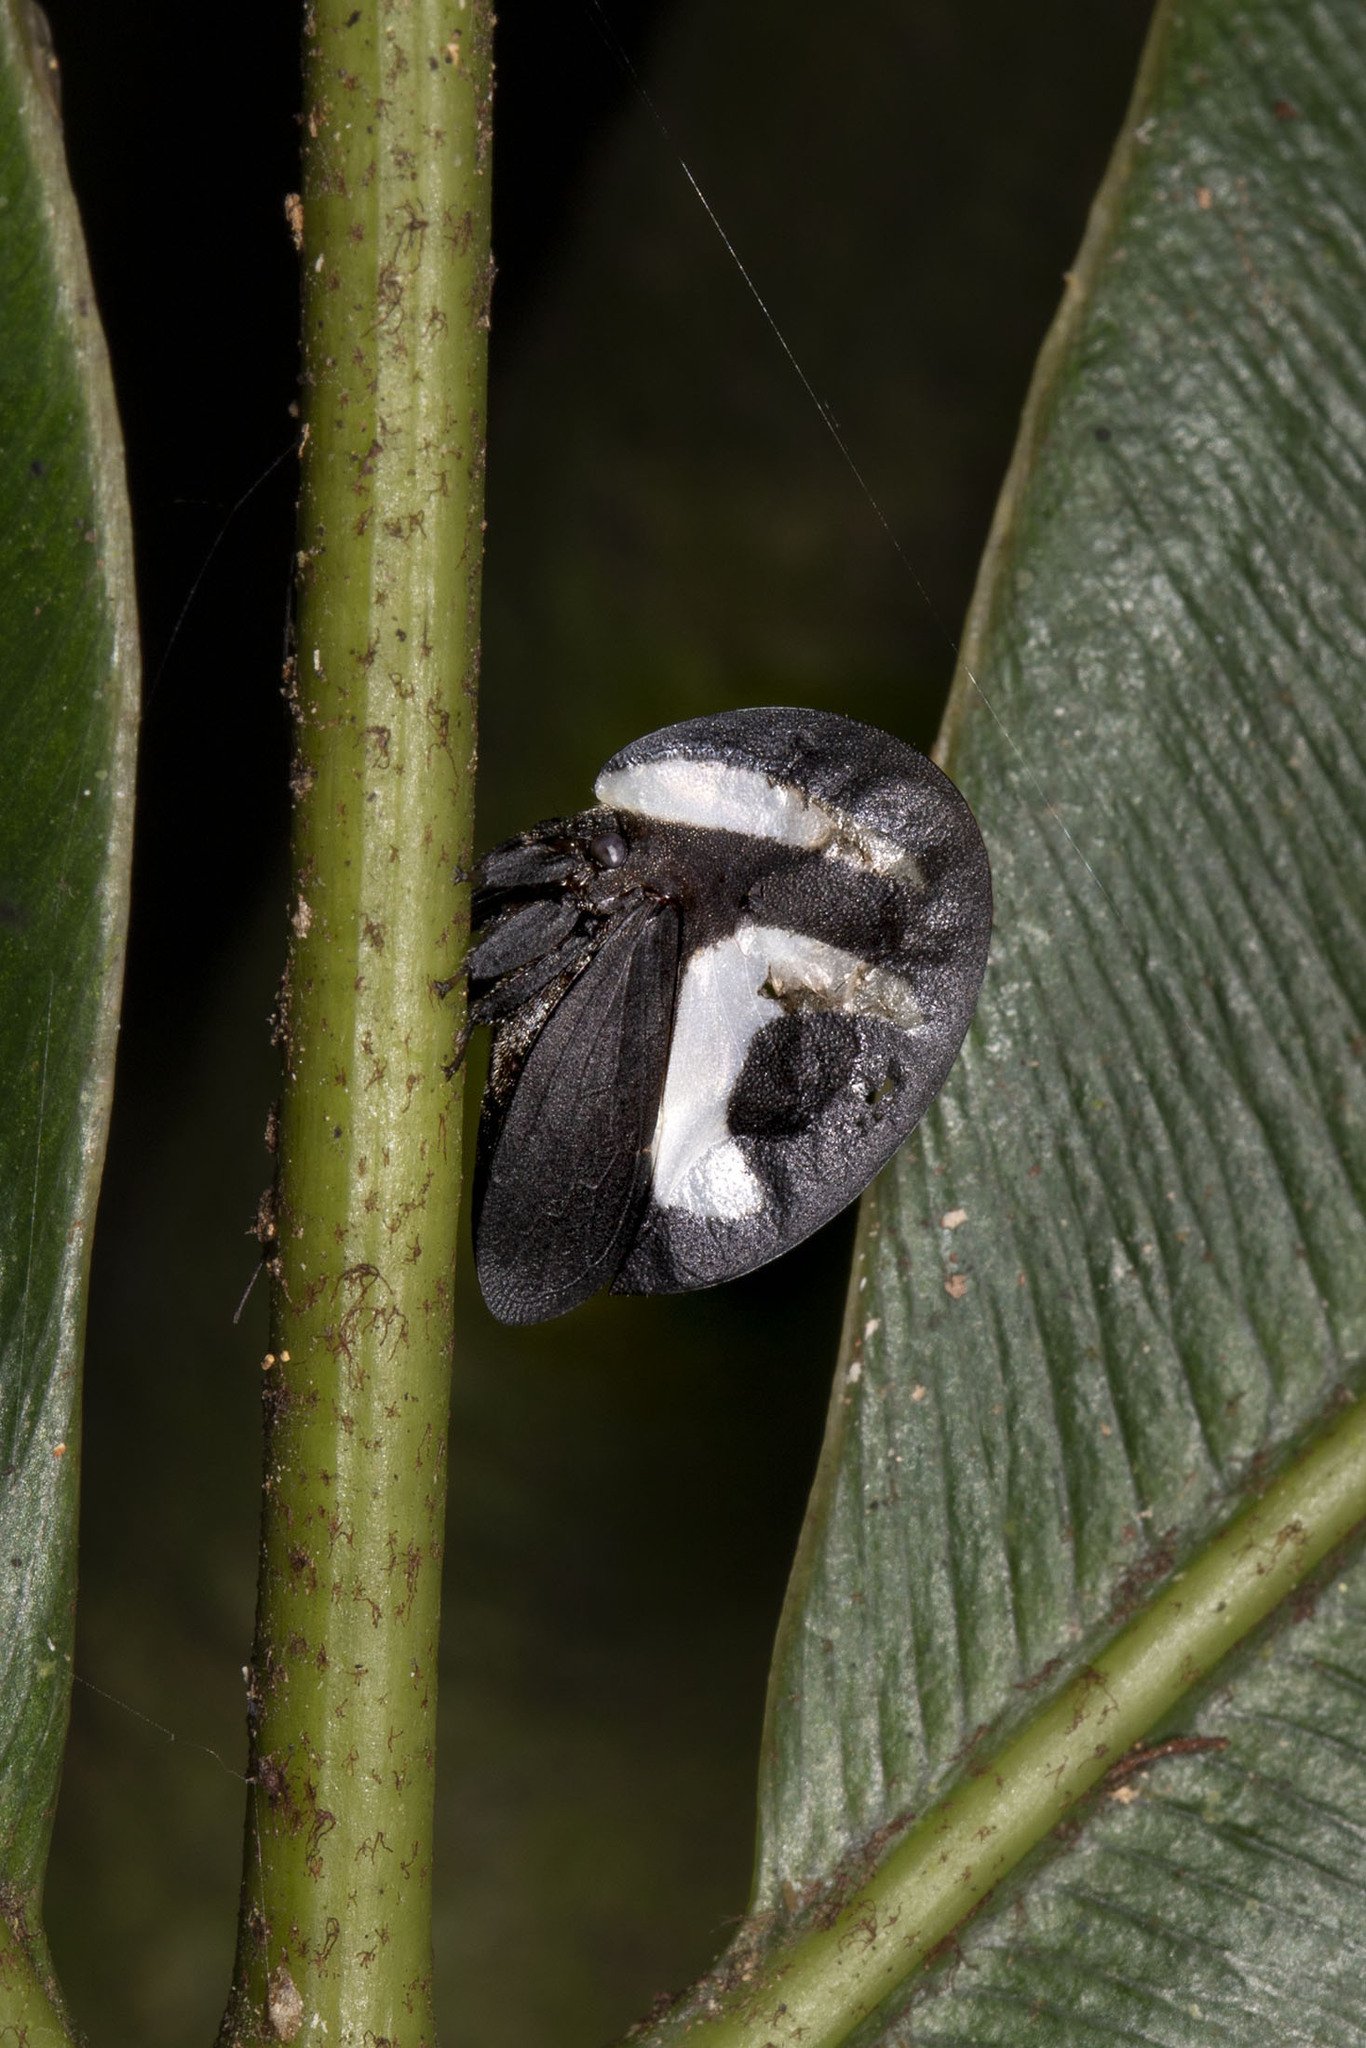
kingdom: Animalia
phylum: Arthropoda
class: Insecta
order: Hemiptera
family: Membracidae
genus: Membracis
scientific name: Membracis foliatafasciata
